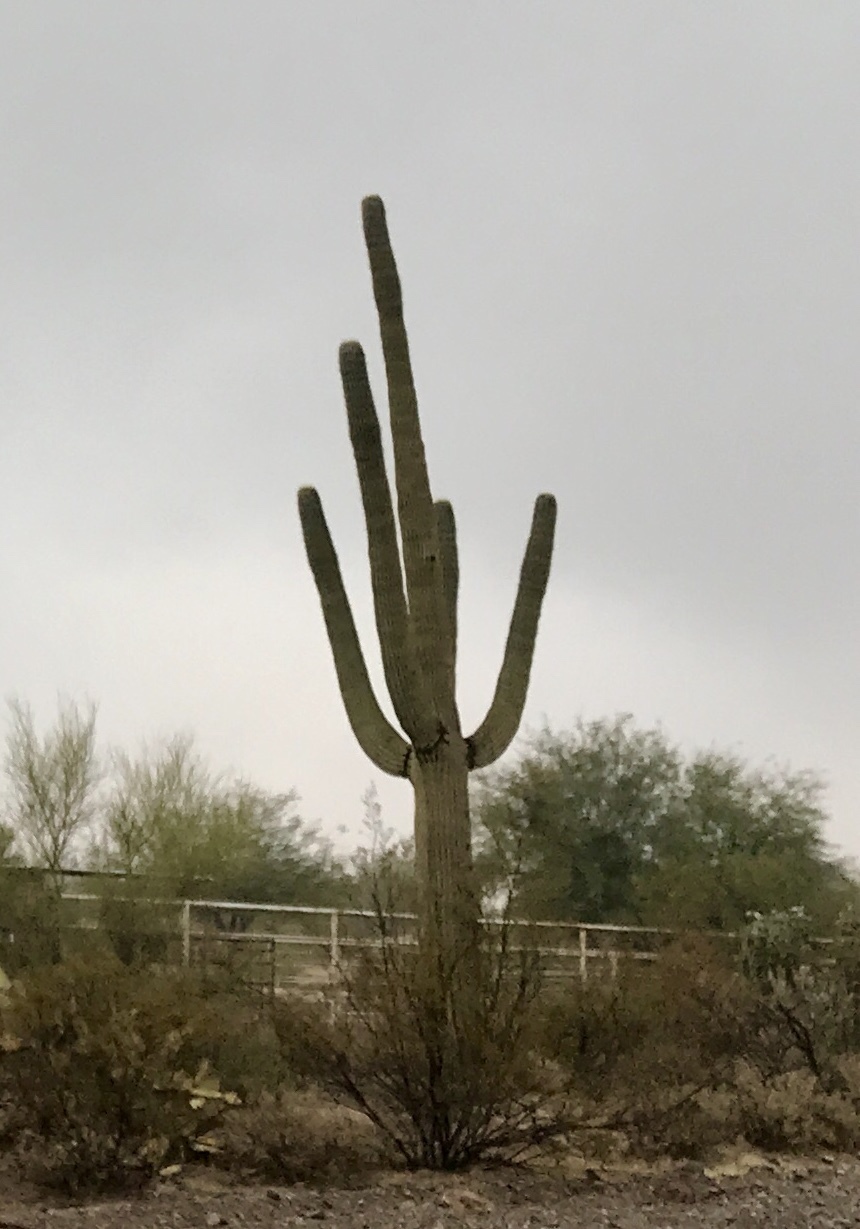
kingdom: Plantae
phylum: Tracheophyta
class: Magnoliopsida
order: Caryophyllales
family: Cactaceae
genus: Carnegiea
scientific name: Carnegiea gigantea
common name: Saguaro
